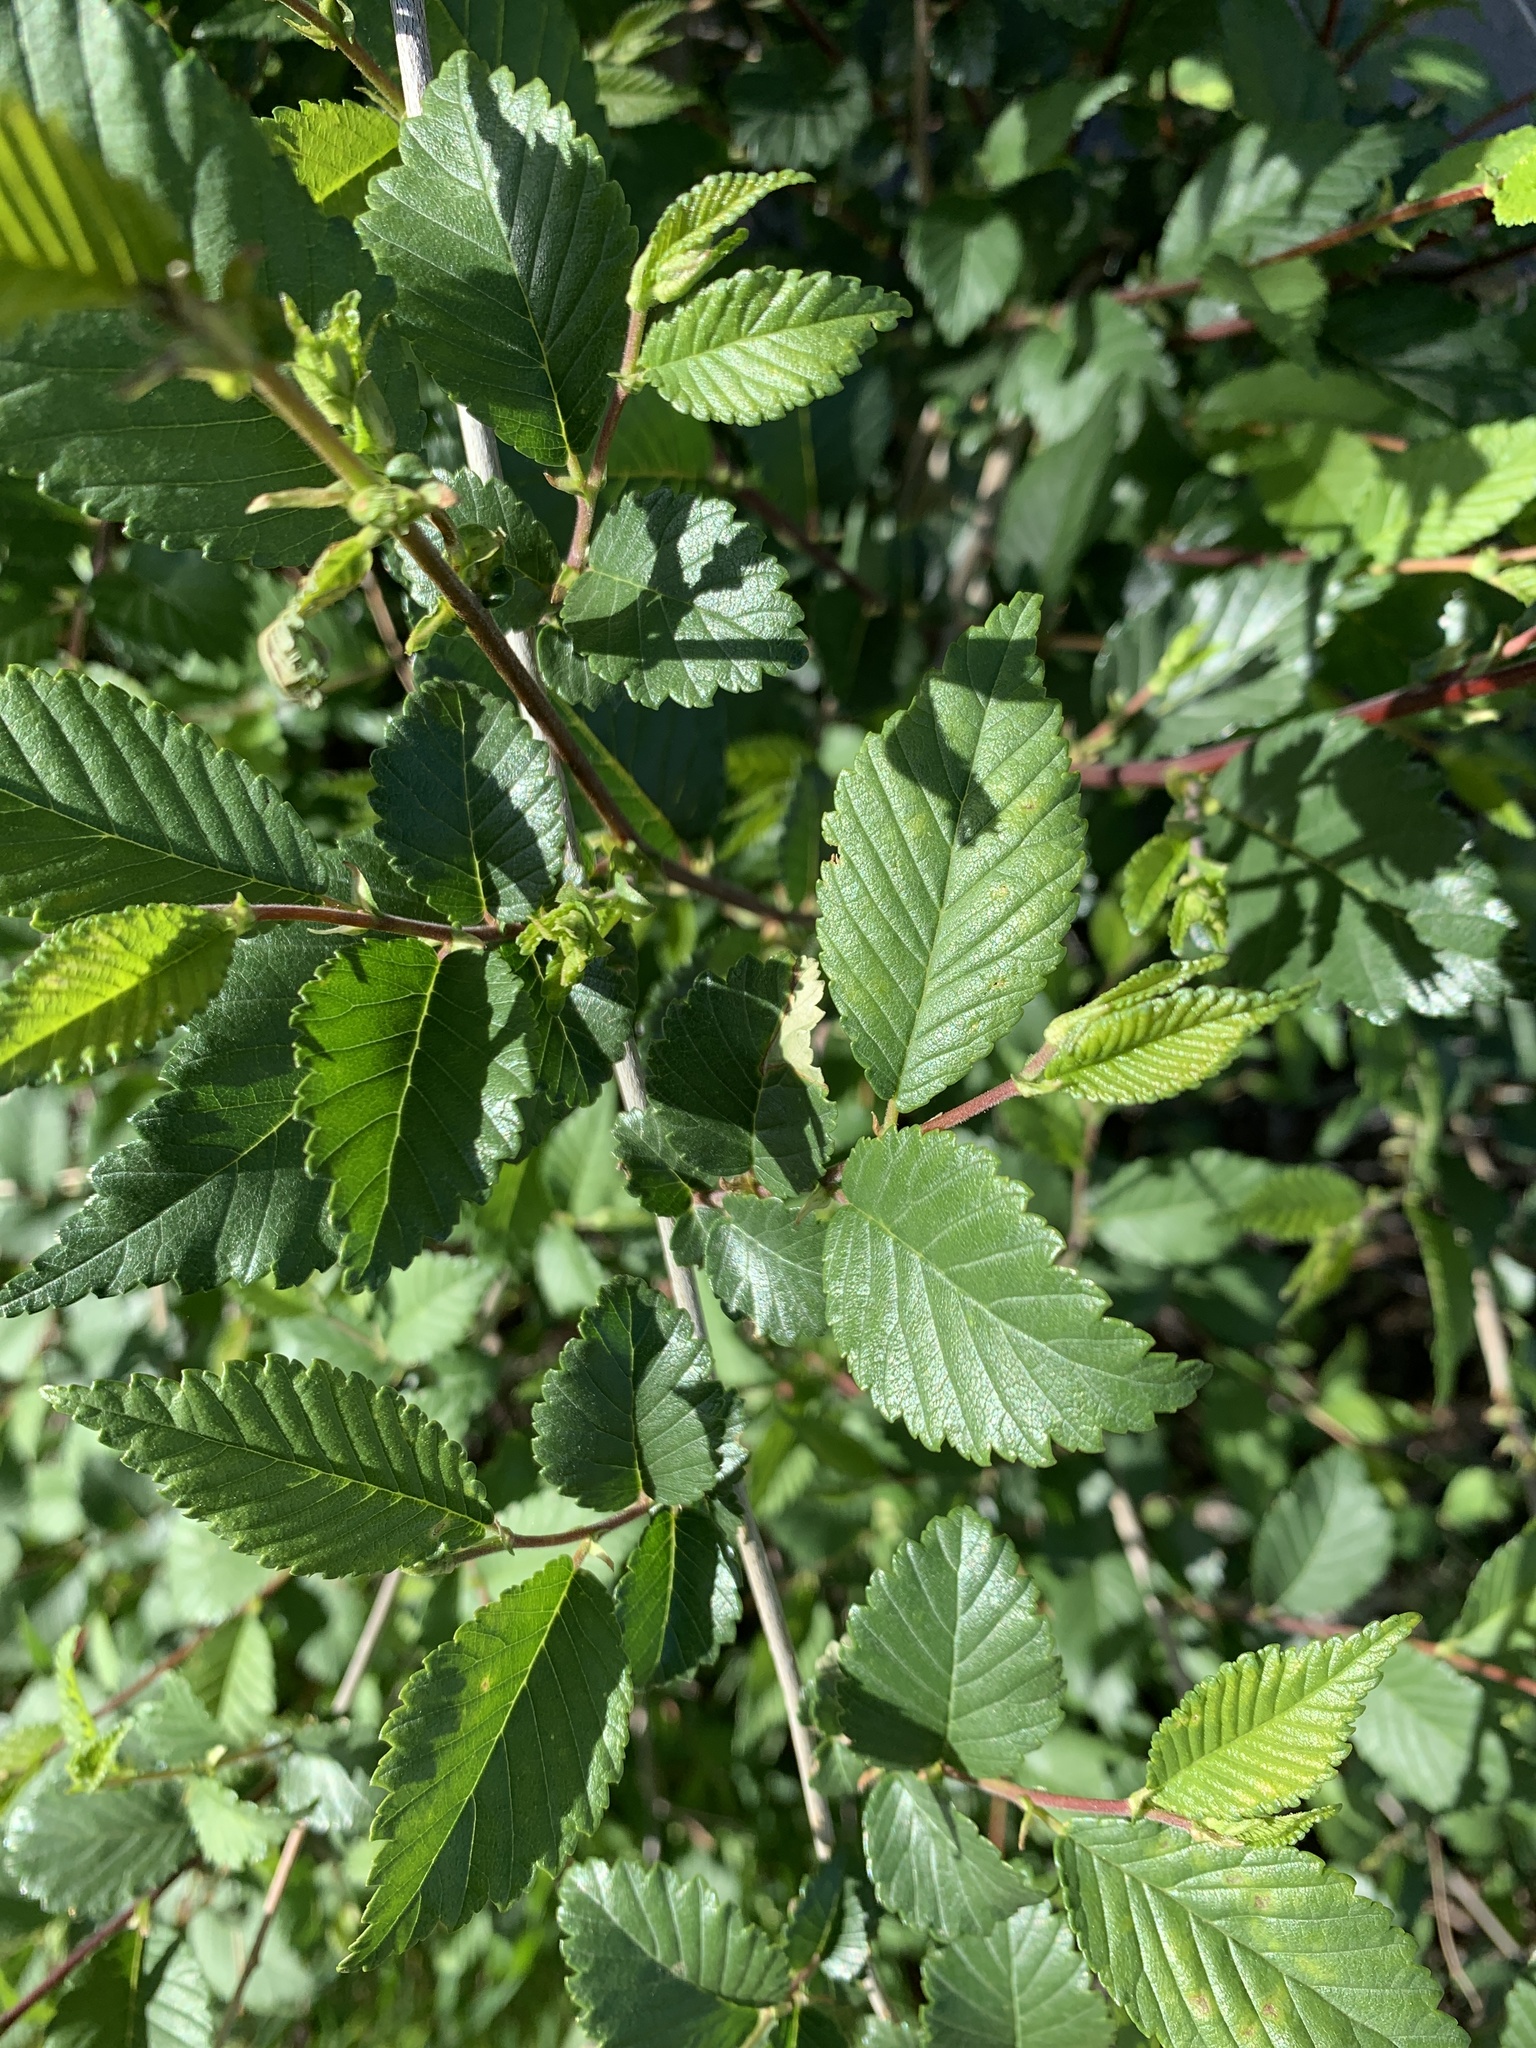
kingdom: Plantae
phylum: Tracheophyta
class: Magnoliopsida
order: Rosales
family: Ulmaceae
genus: Ulmus
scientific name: Ulmus pumila
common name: Siberian elm
